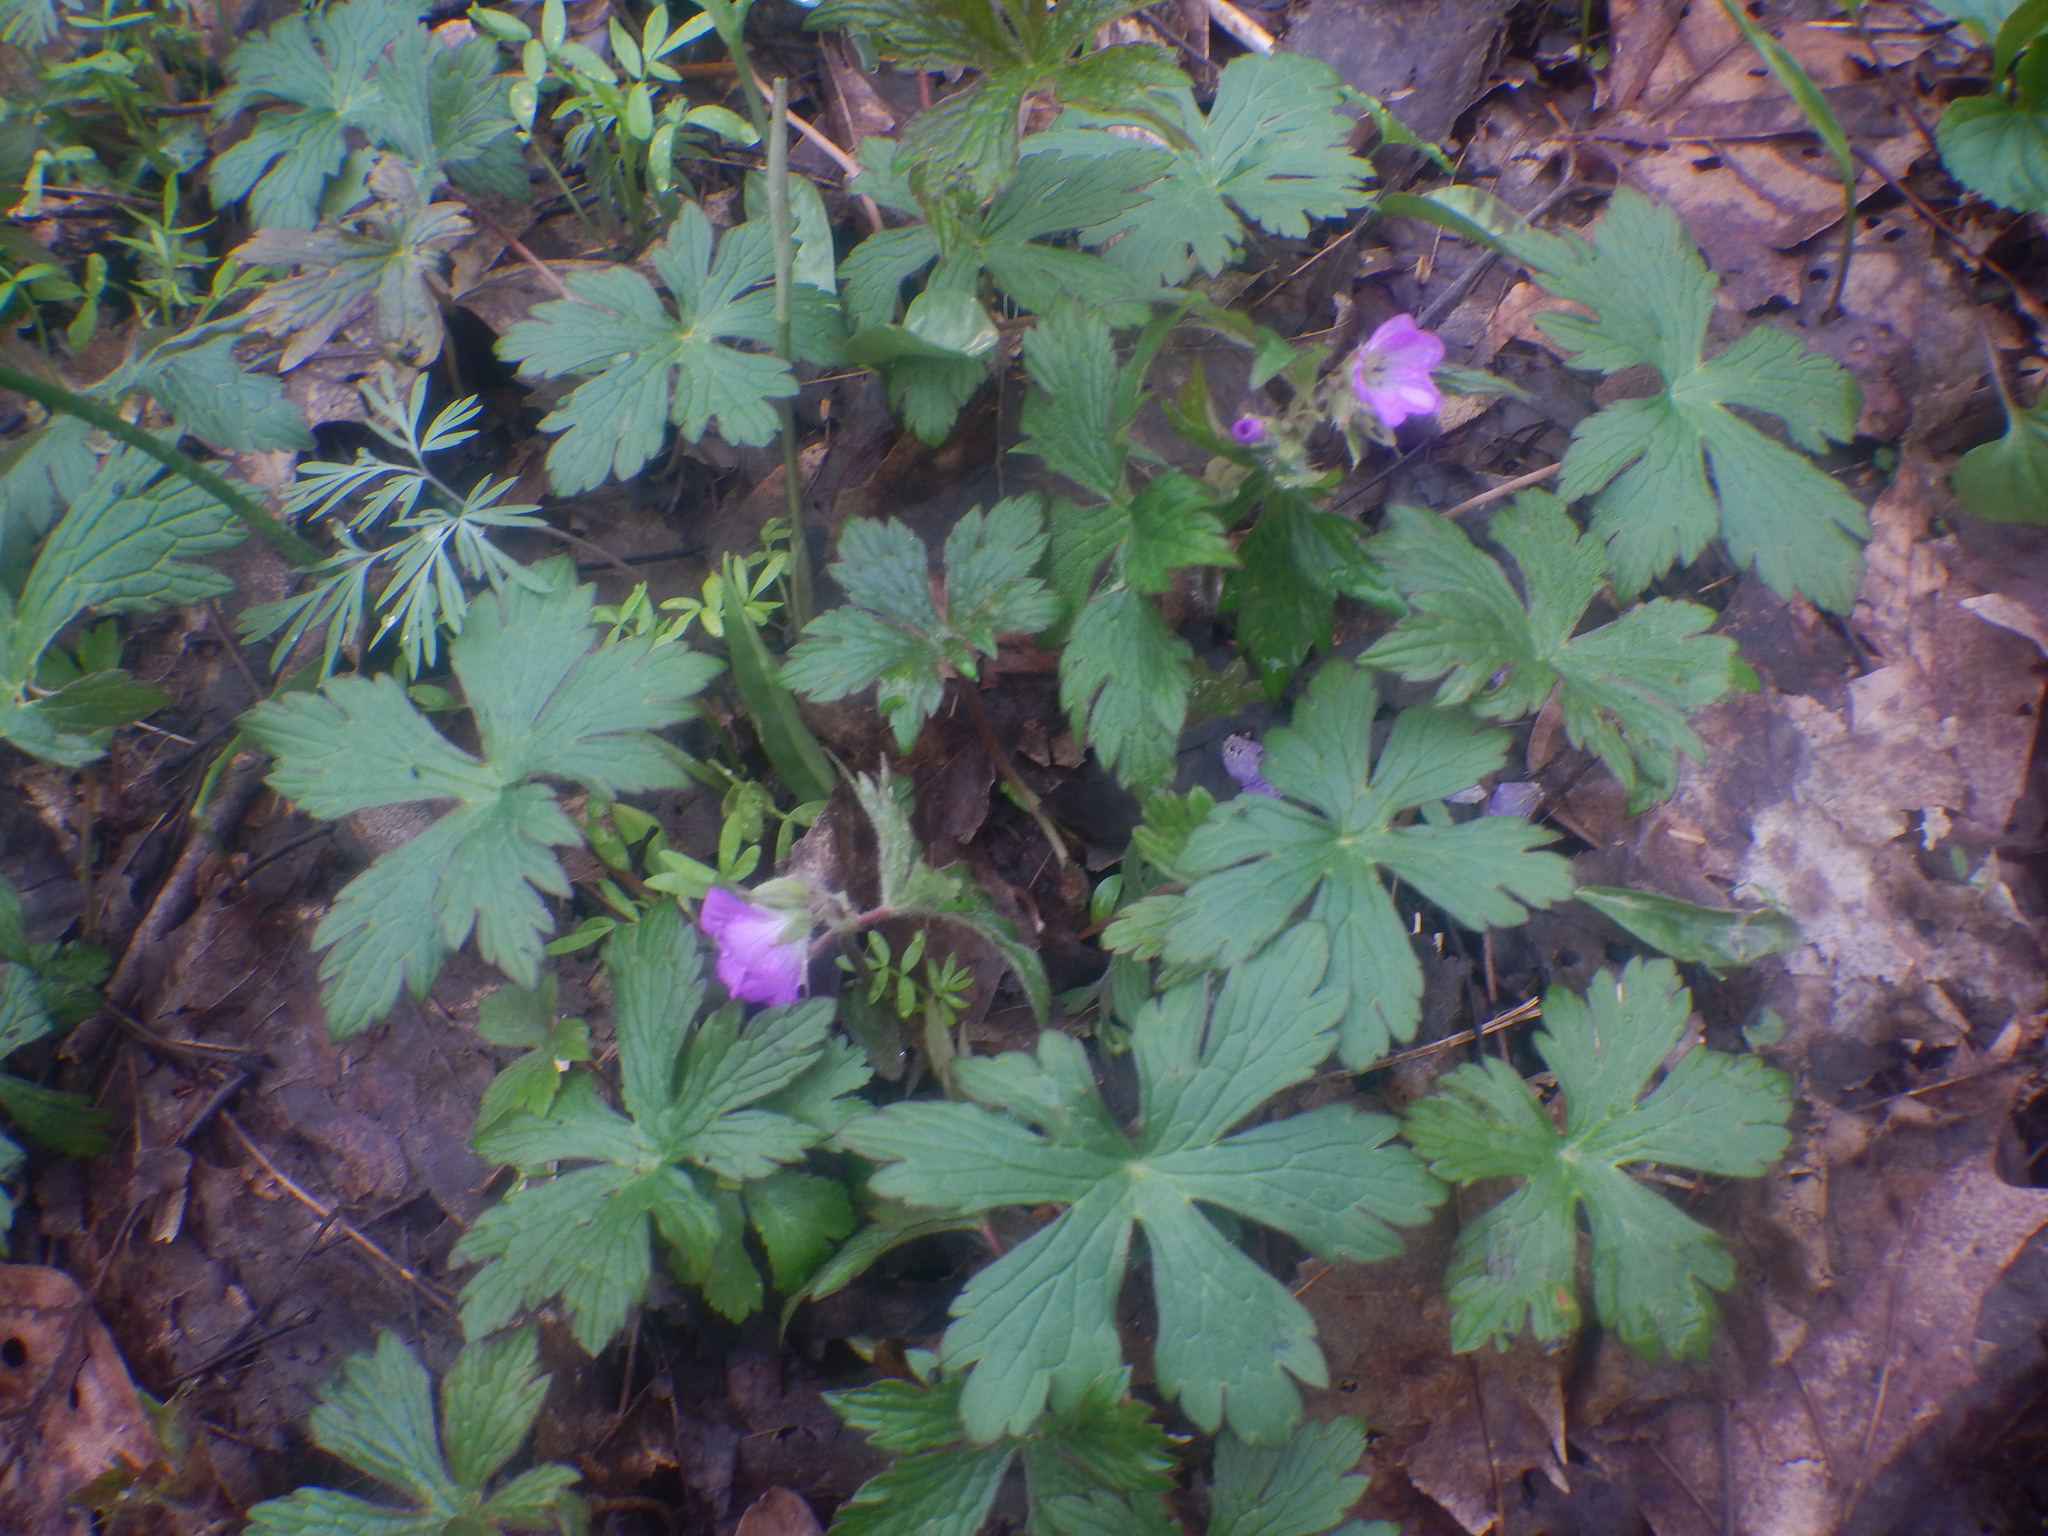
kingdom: Plantae
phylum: Tracheophyta
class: Magnoliopsida
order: Geraniales
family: Geraniaceae
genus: Geranium
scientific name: Geranium maculatum
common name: Spotted geranium
